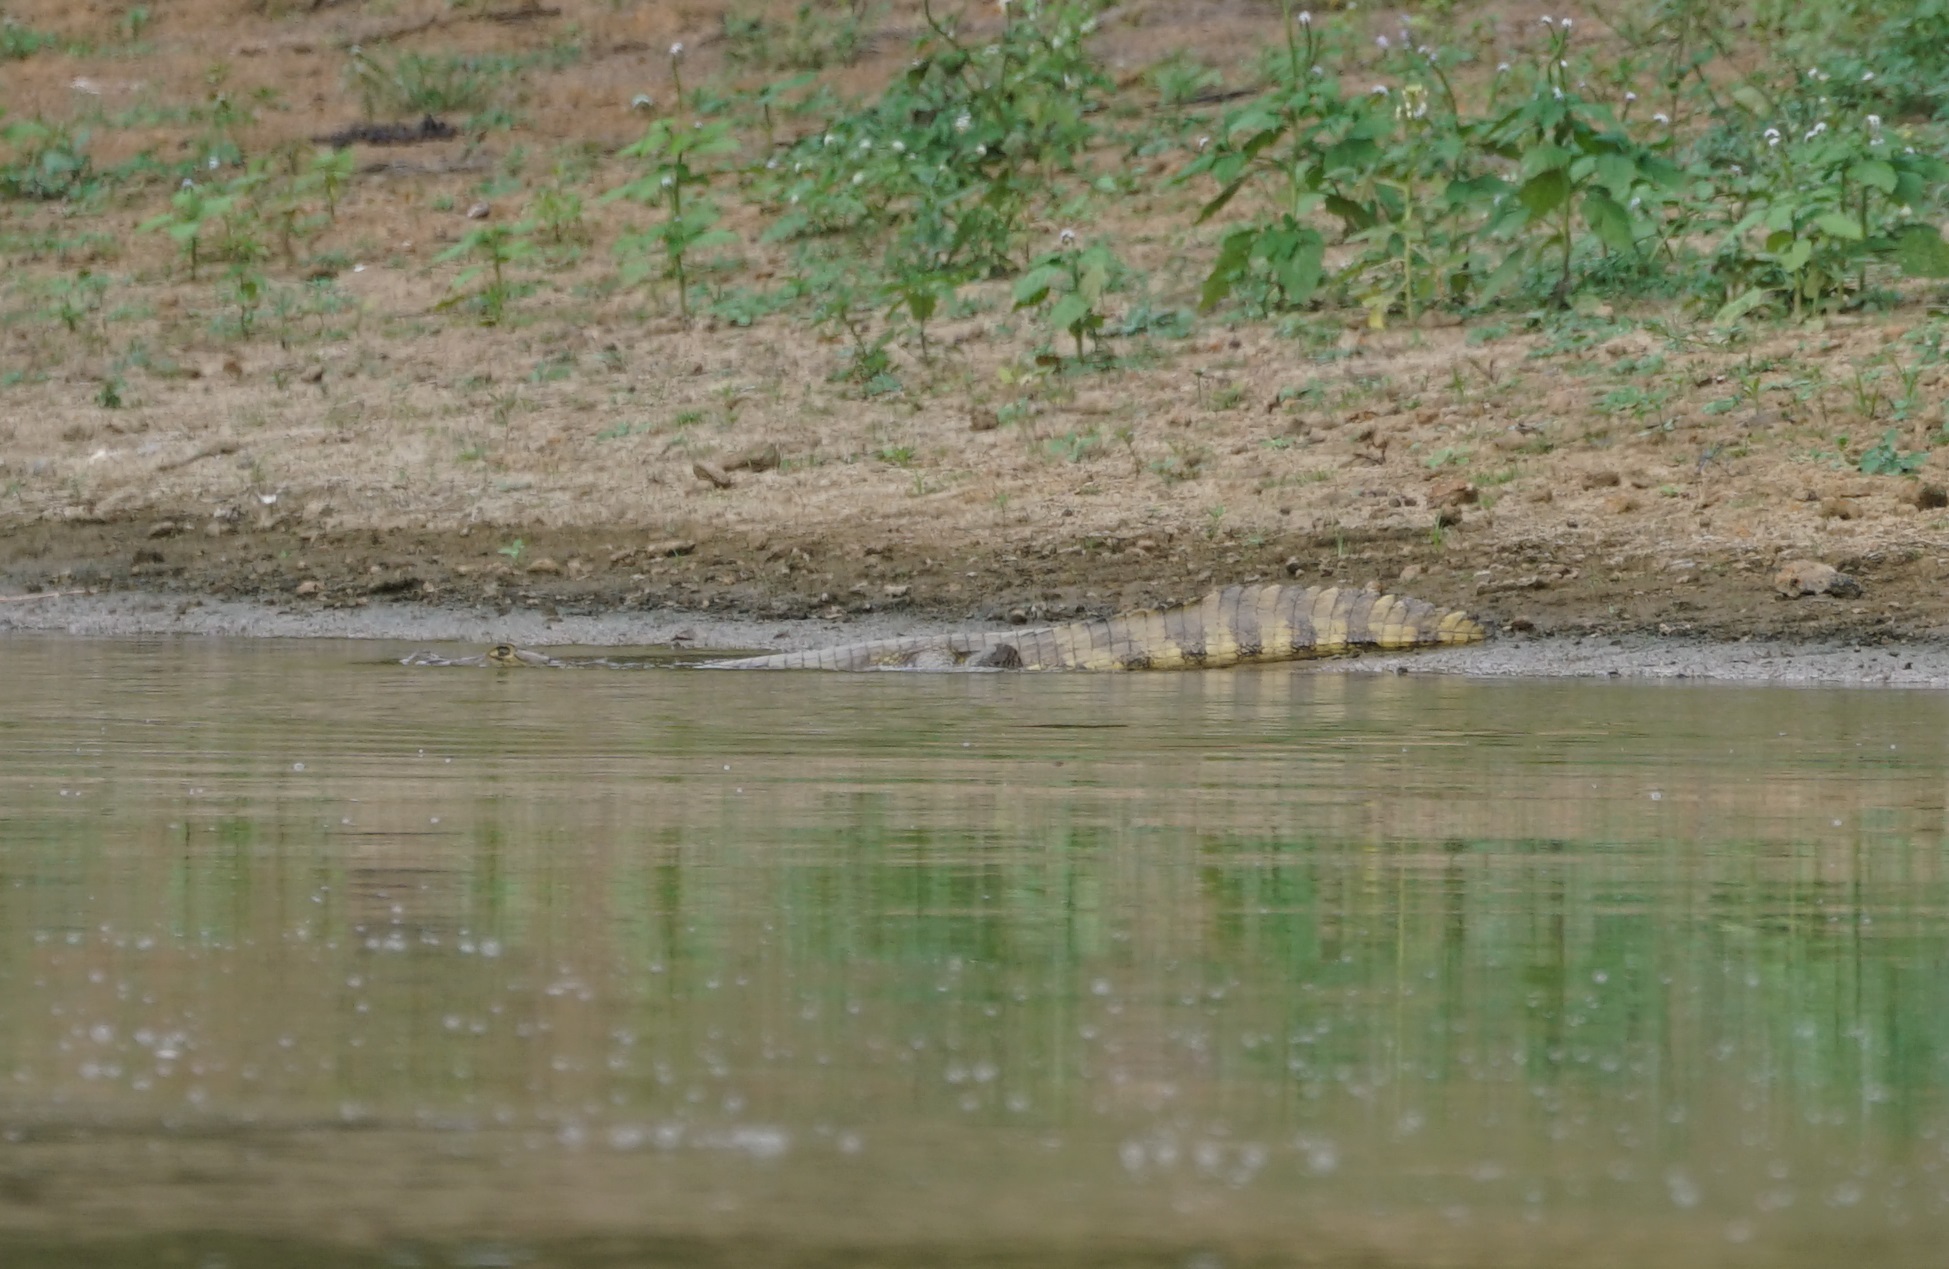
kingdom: Animalia
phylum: Chordata
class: Crocodylia
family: Alligatoridae
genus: Caiman
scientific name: Caiman yacare
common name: Yacare caiman
